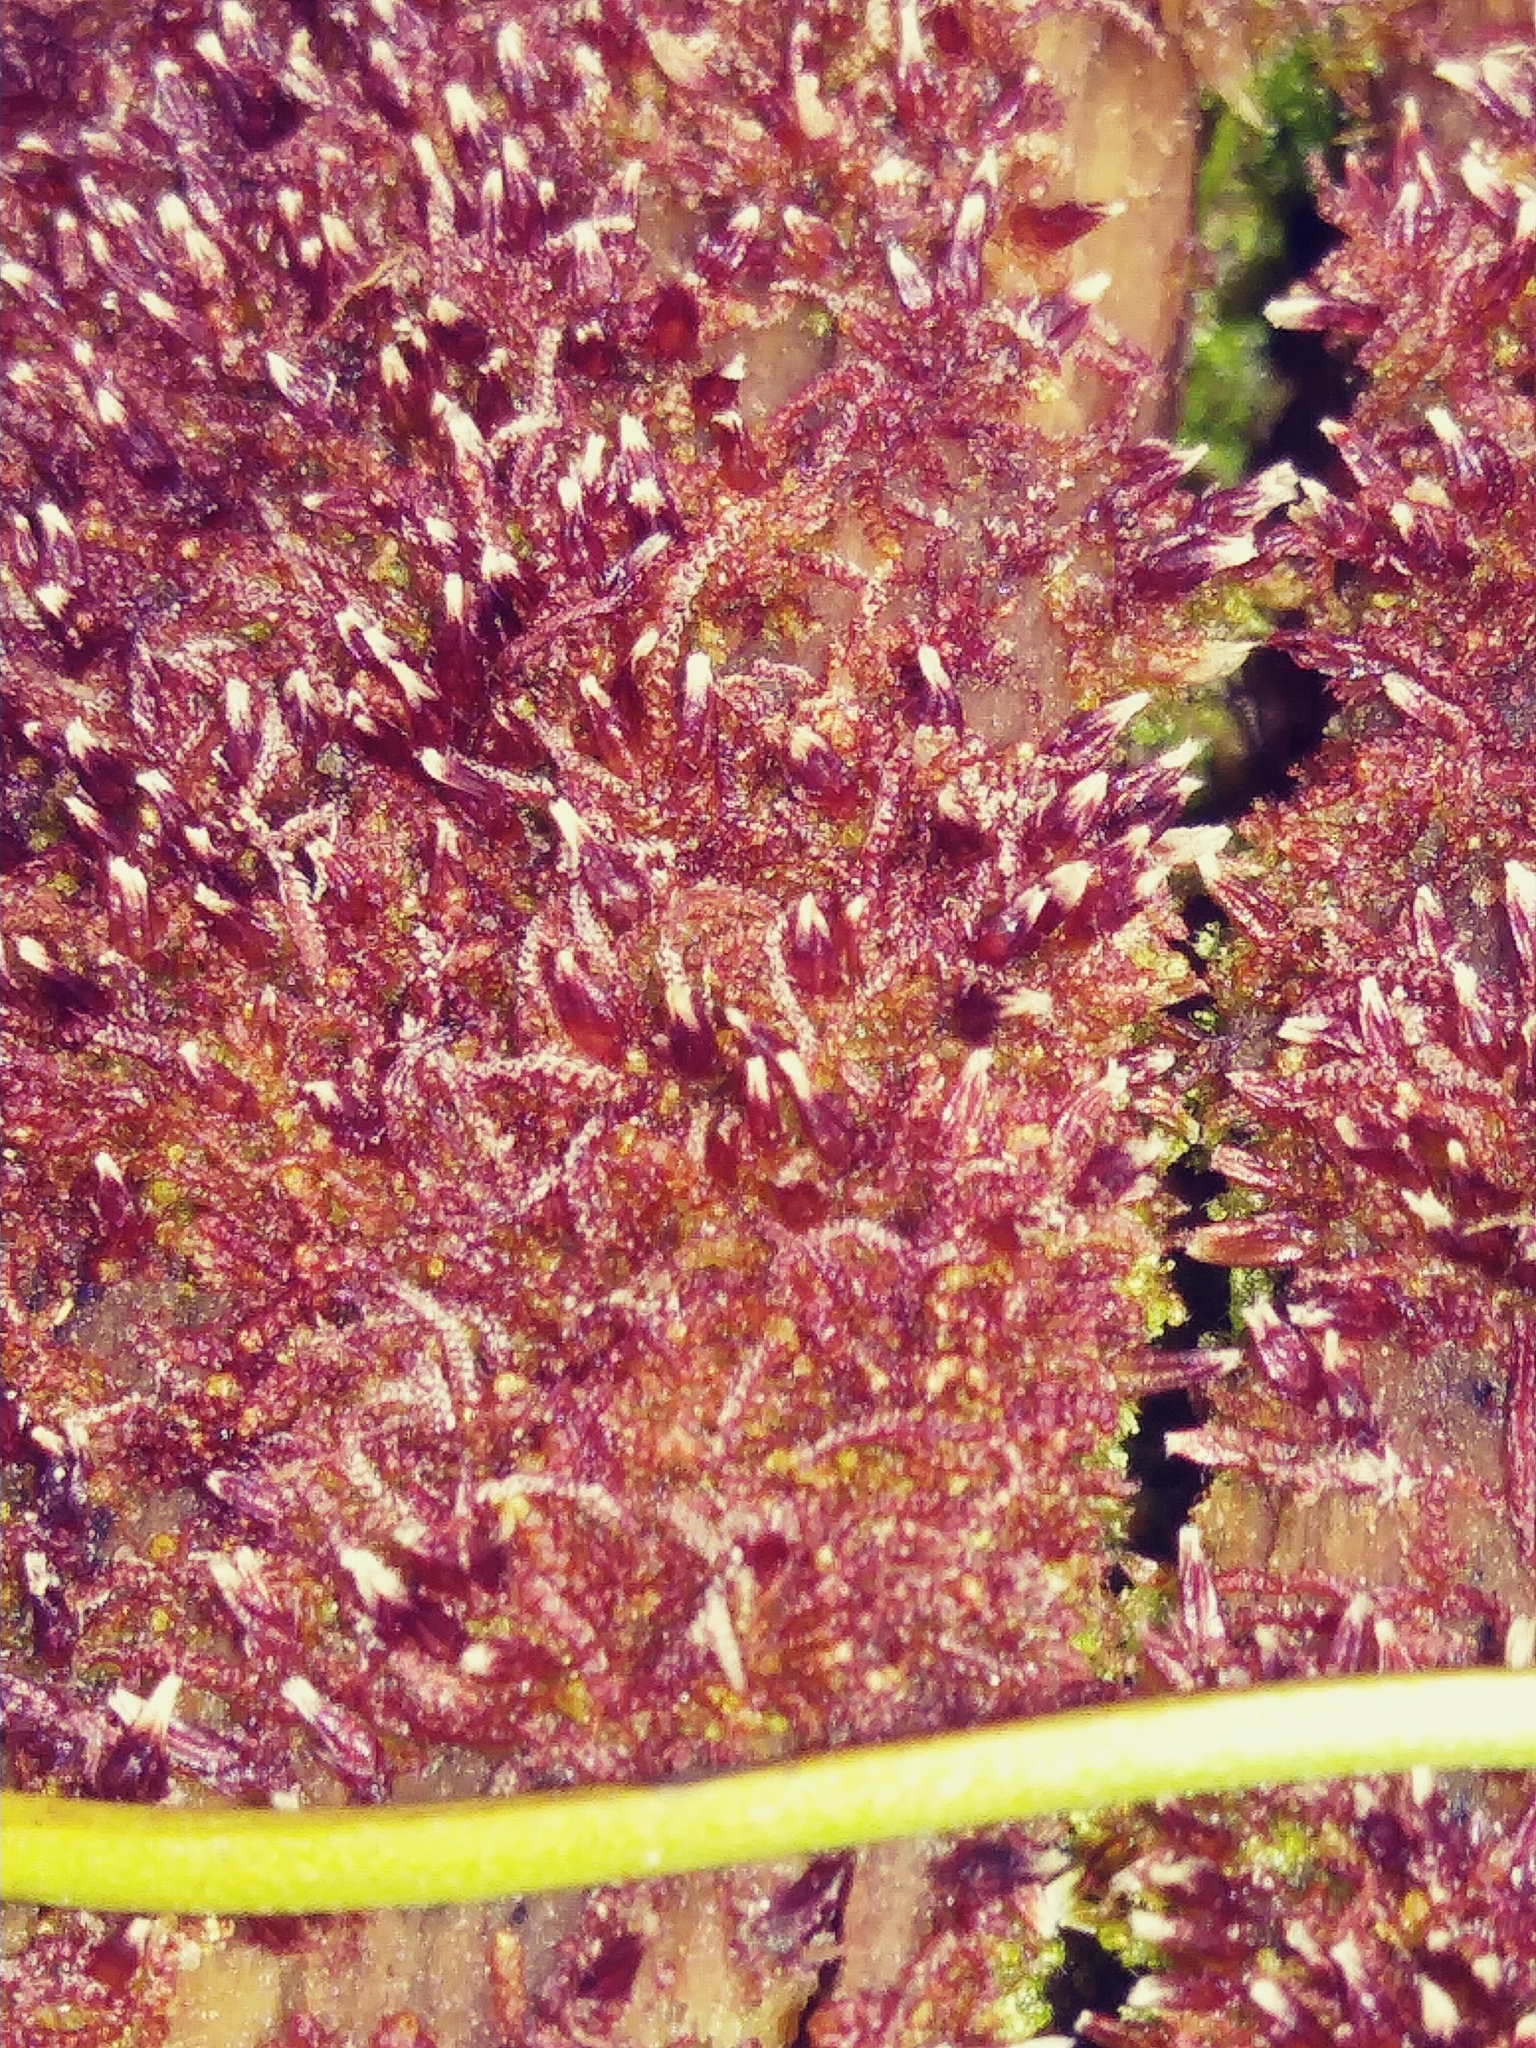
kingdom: Plantae
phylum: Marchantiophyta
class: Jungermanniopsida
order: Jungermanniales
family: Cephaloziaceae
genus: Nowellia
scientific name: Nowellia curvifolia
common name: Wood rustwort
